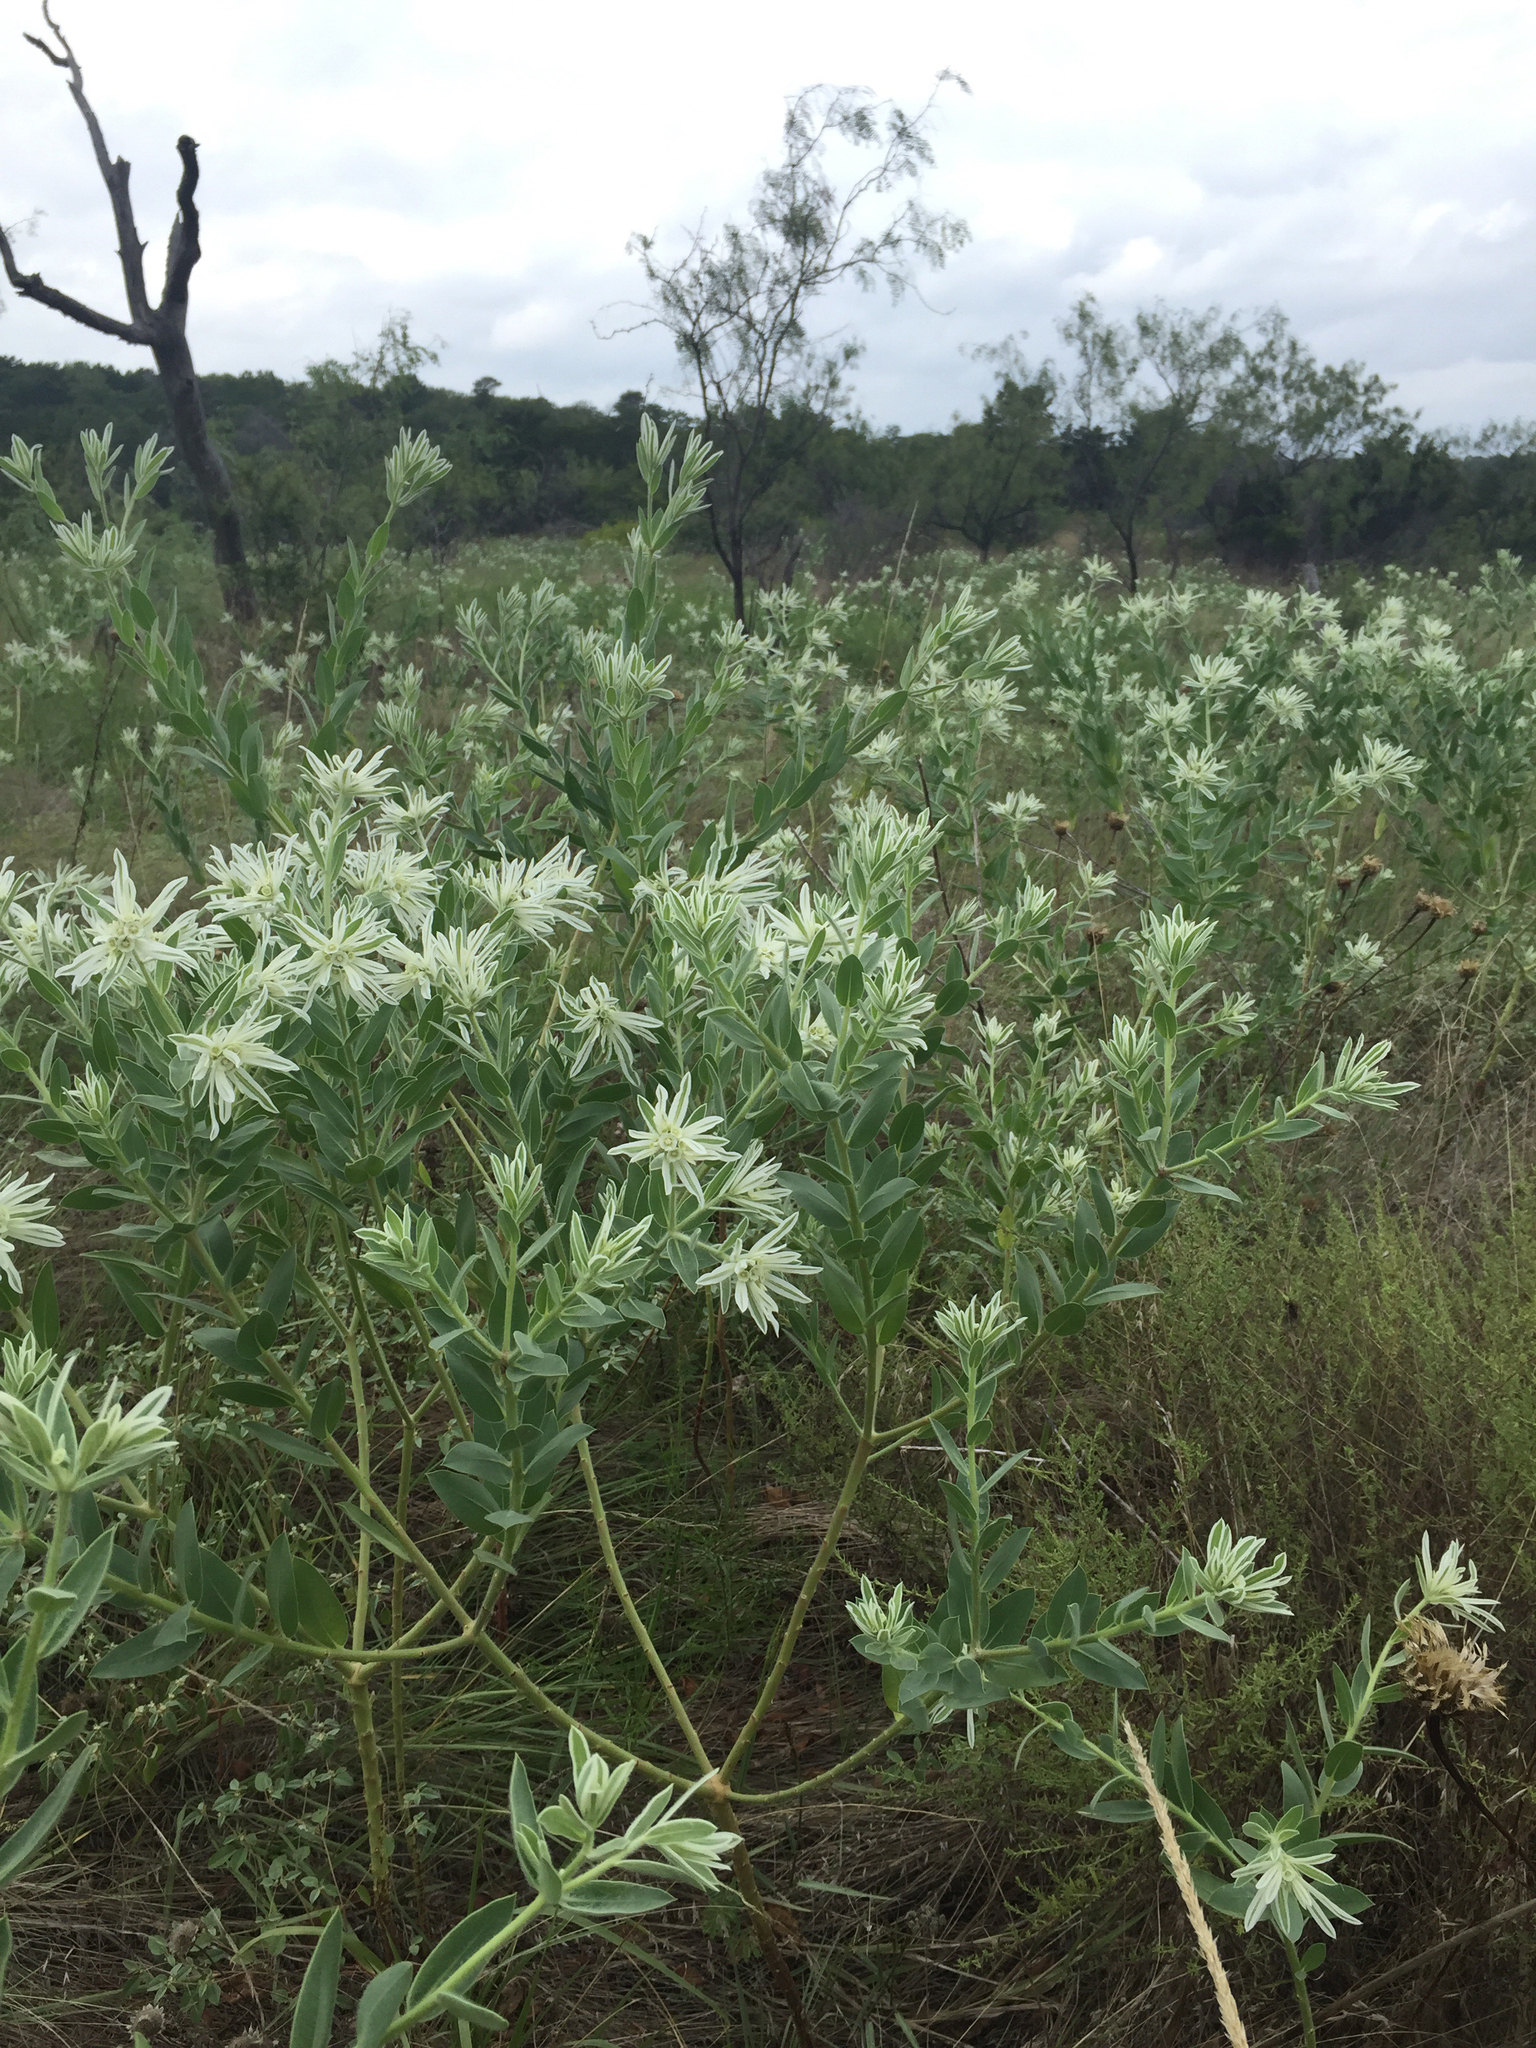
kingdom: Plantae
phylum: Tracheophyta
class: Magnoliopsida
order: Malpighiales
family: Euphorbiaceae
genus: Euphorbia
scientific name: Euphorbia bicolor
